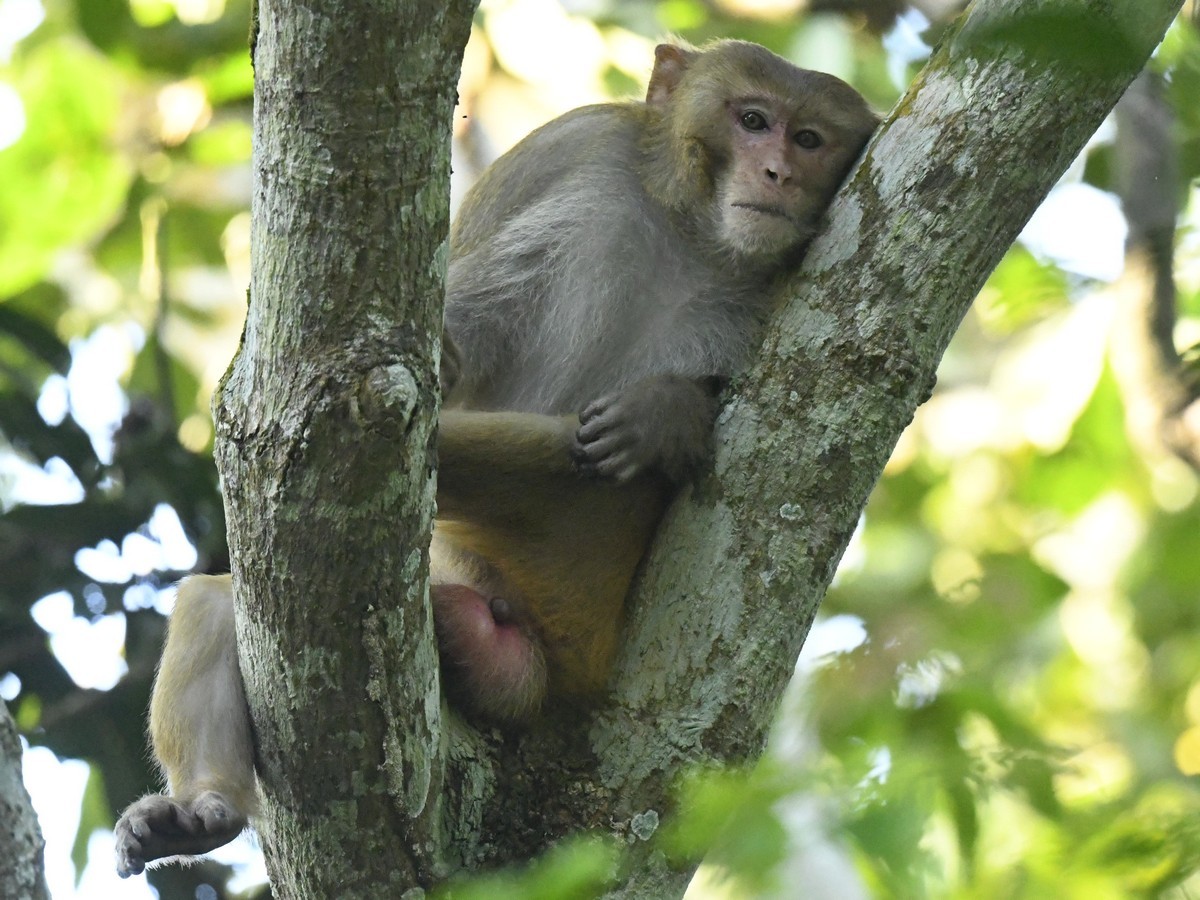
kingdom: Animalia
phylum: Chordata
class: Mammalia
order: Primates
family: Cercopithecidae
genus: Macaca
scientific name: Macaca mulatta
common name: Rhesus monkey
